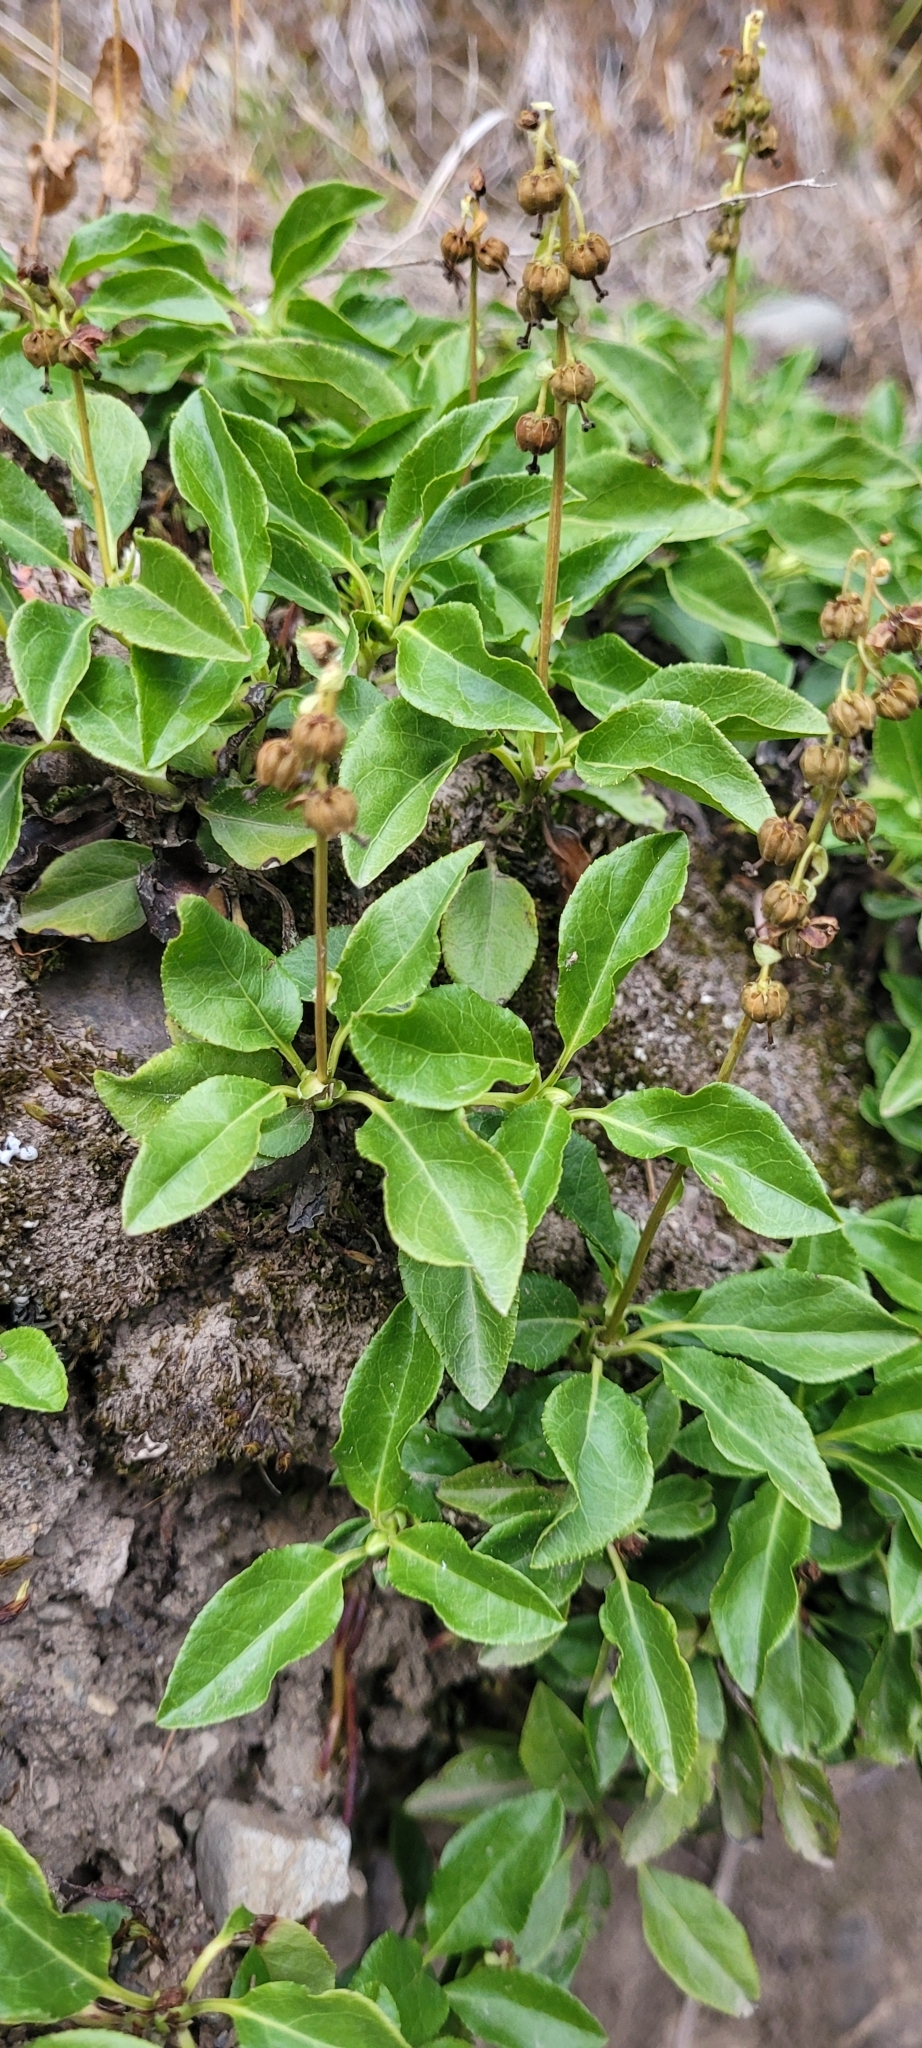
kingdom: Plantae
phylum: Tracheophyta
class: Magnoliopsida
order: Ericales
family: Ericaceae
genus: Orthilia
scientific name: Orthilia secunda
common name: One-sided orthilia
